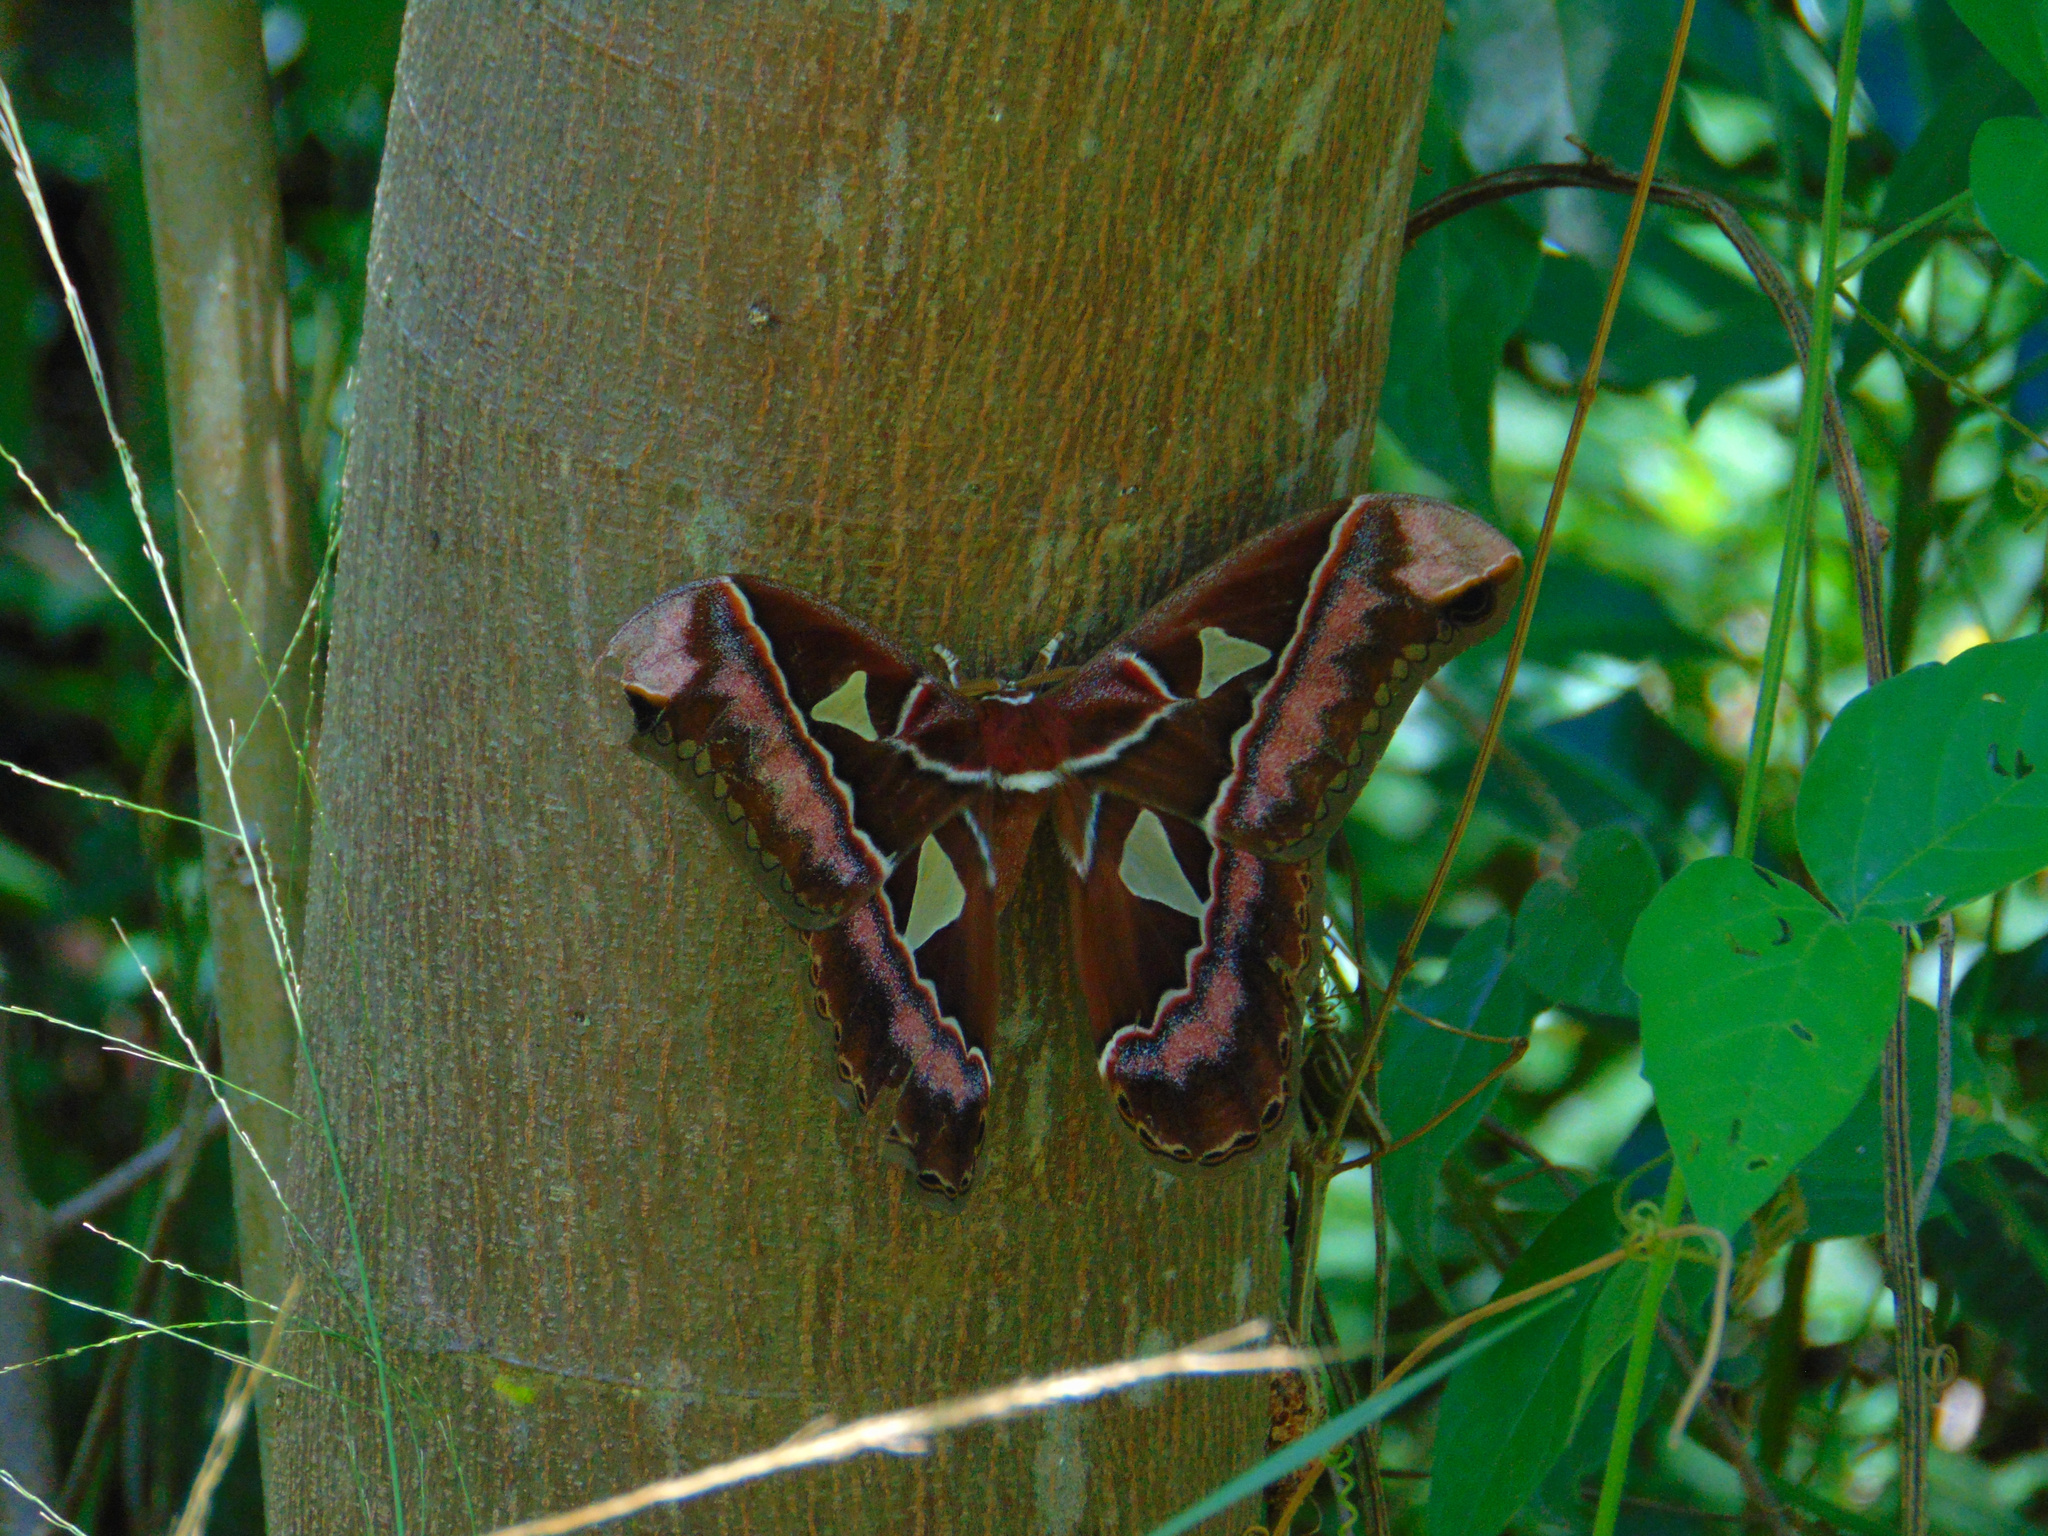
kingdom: Animalia
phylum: Arthropoda
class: Insecta
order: Lepidoptera
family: Saturniidae
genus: Rothschildia
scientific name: Rothschildia speculifer
